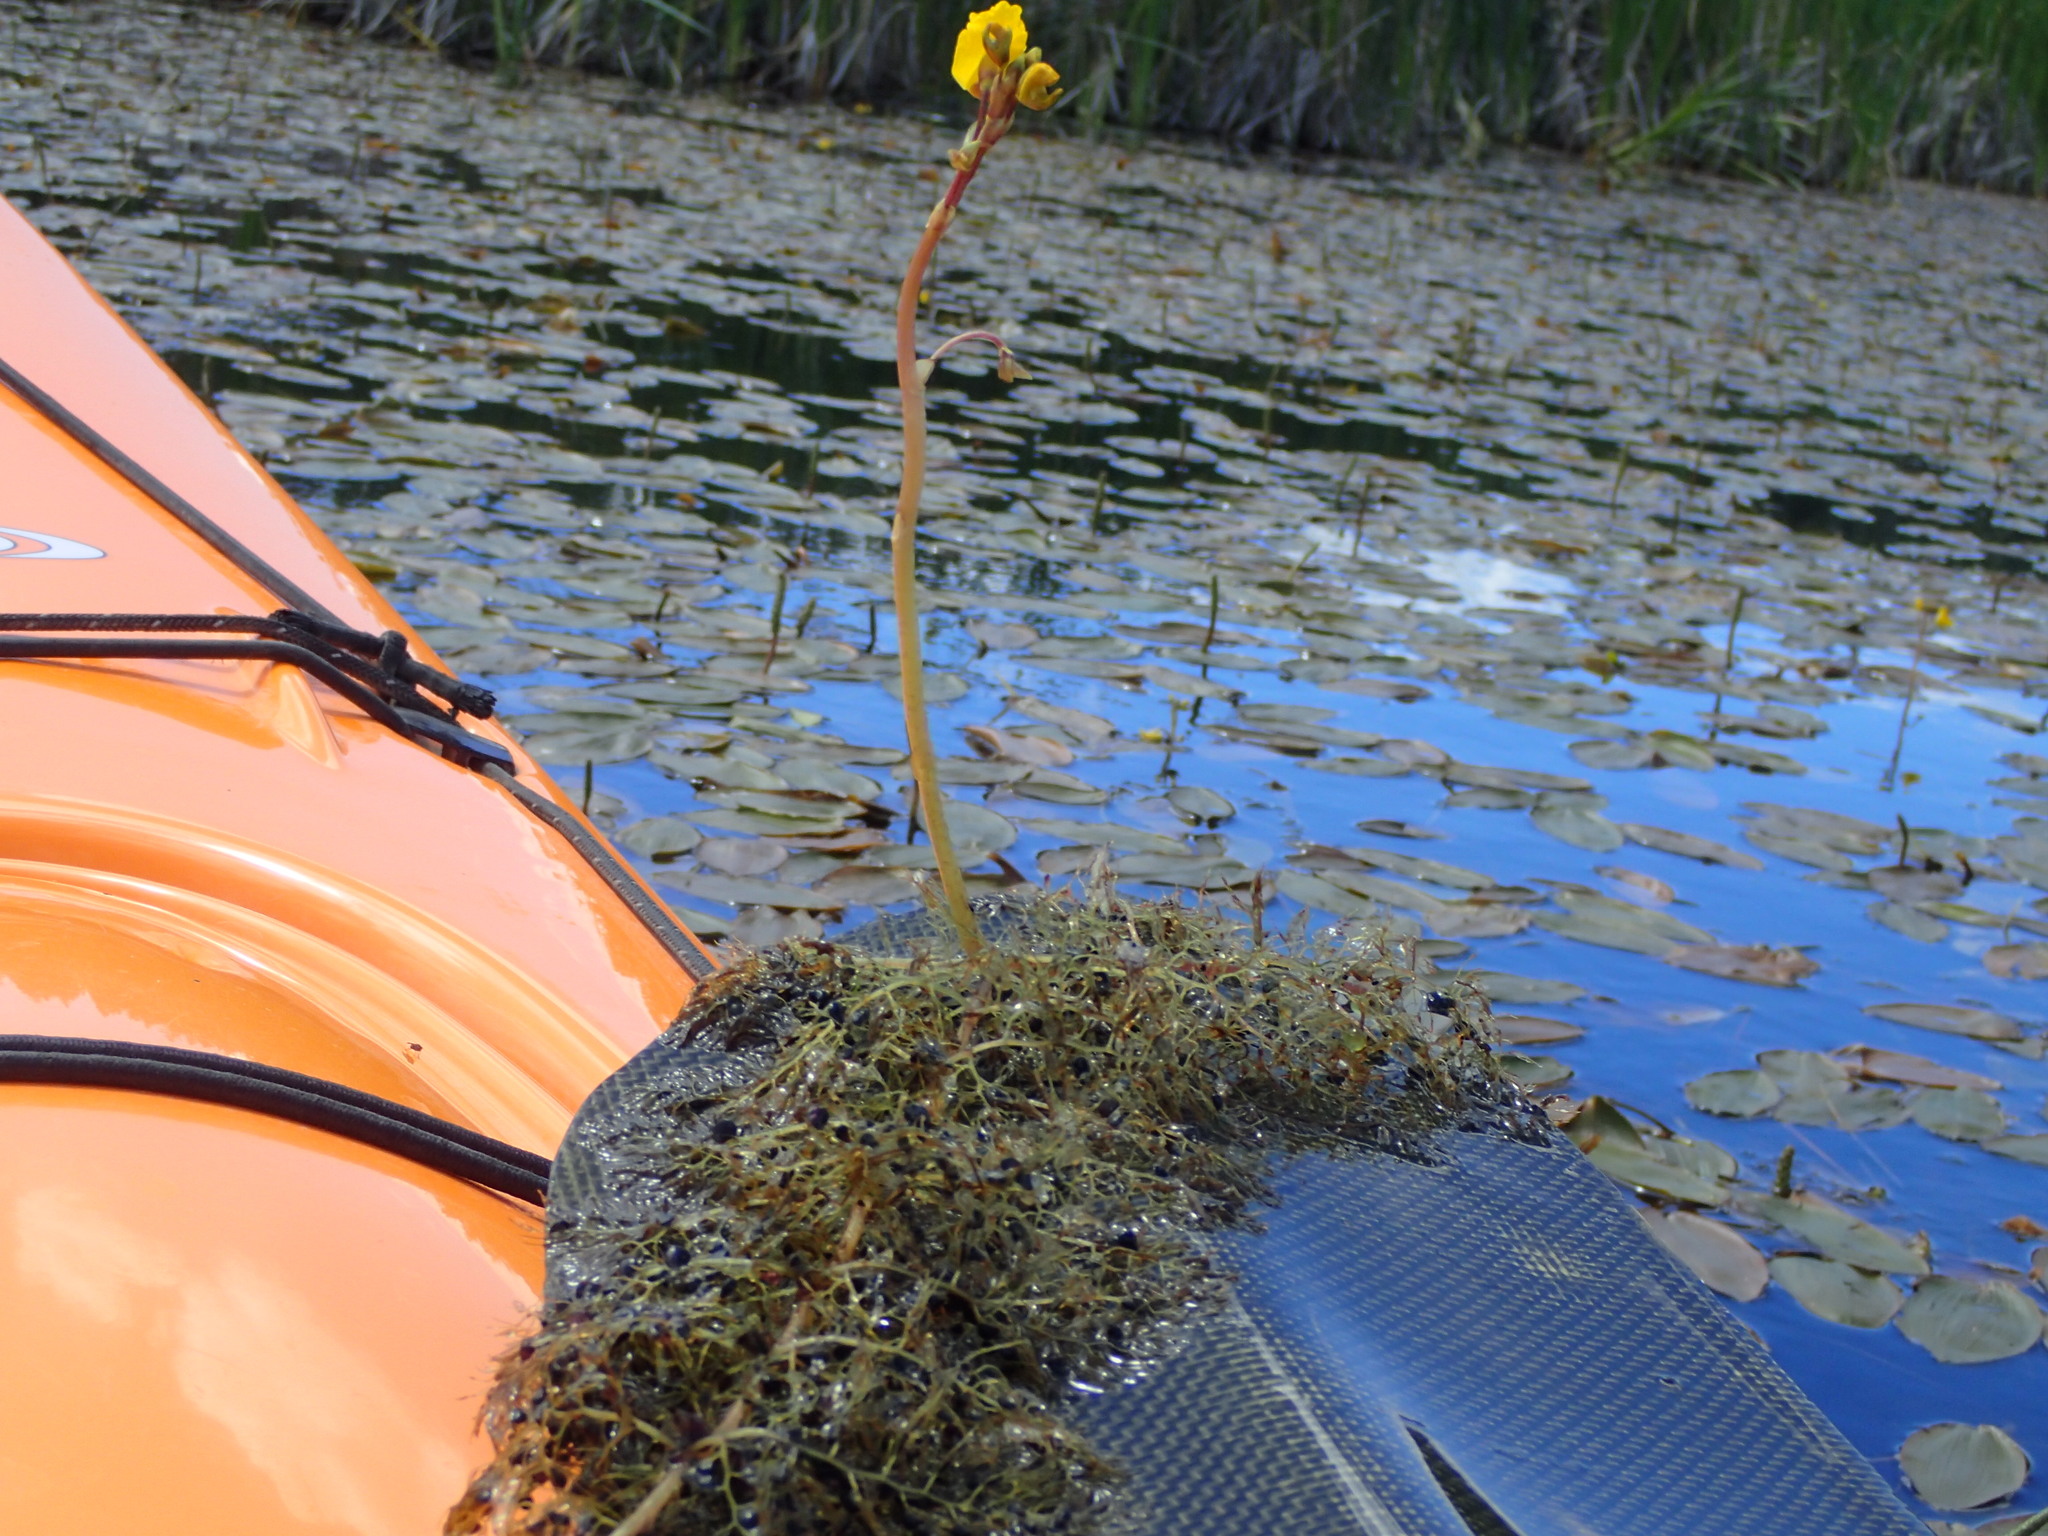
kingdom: Plantae
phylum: Tracheophyta
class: Magnoliopsida
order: Lamiales
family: Lentibulariaceae
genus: Utricularia
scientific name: Utricularia macrorhiza
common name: Common bladderwort
